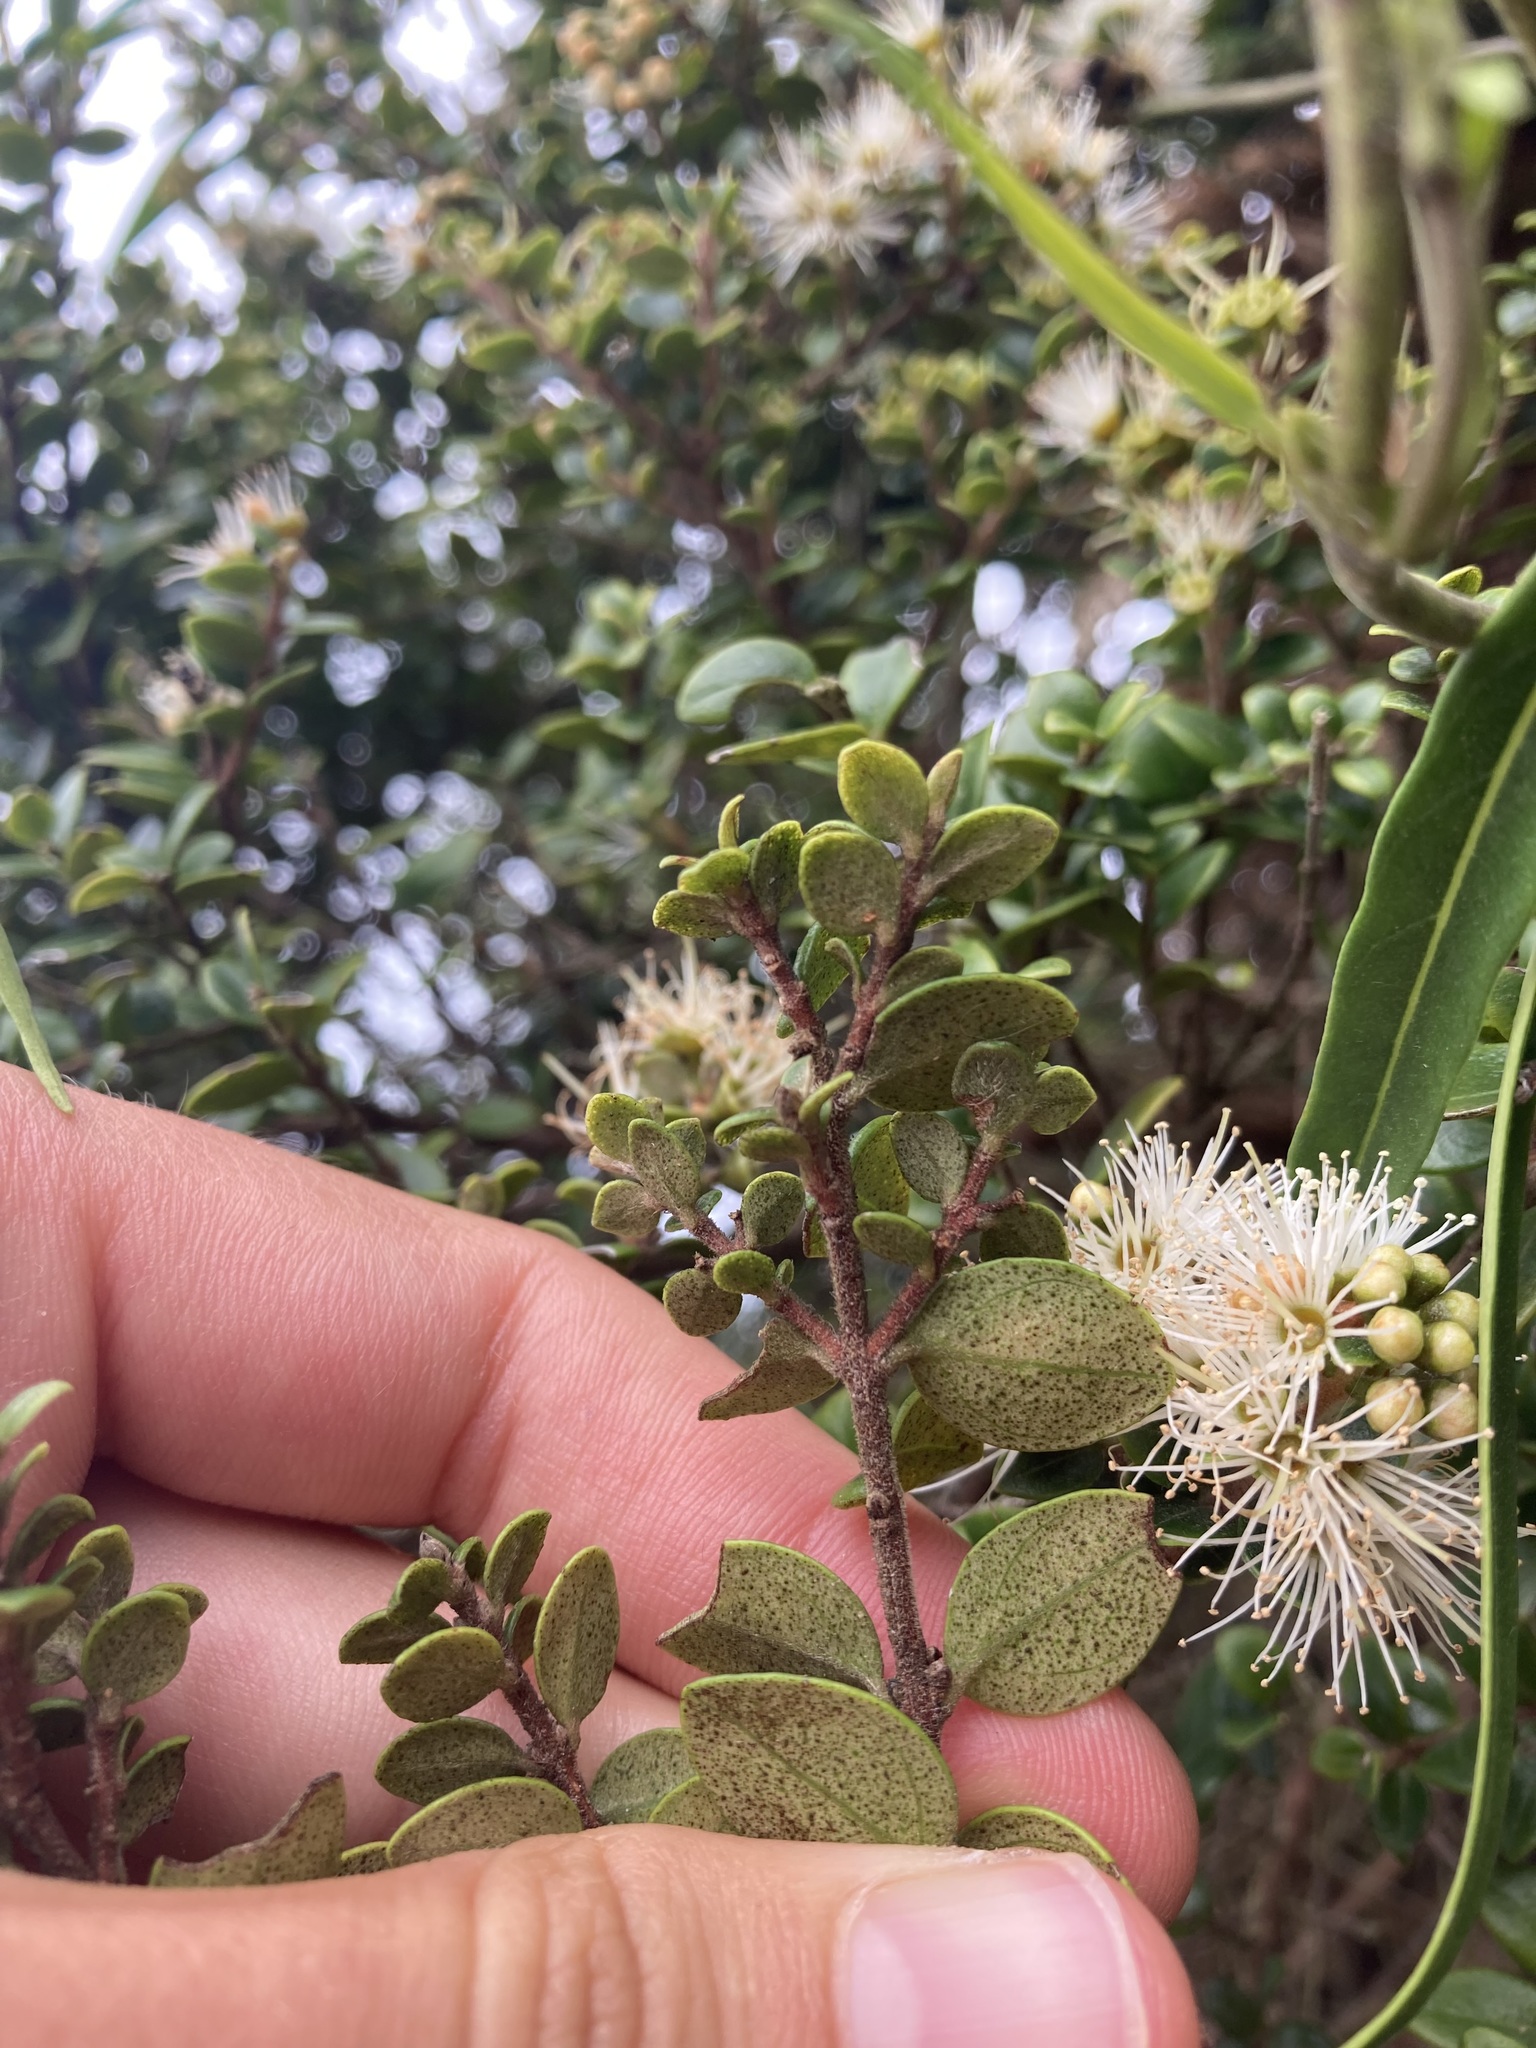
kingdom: Plantae
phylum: Tracheophyta
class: Magnoliopsida
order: Myrtales
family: Myrtaceae
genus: Metrosideros
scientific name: Metrosideros perforata
